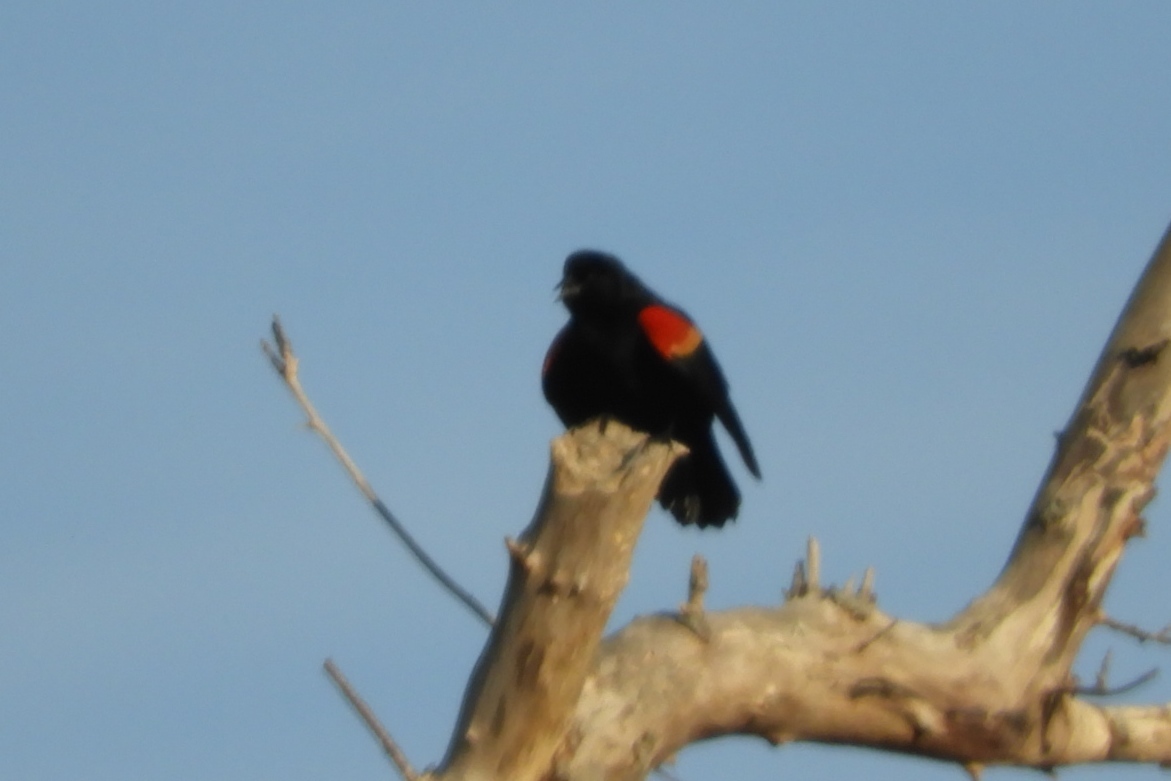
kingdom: Animalia
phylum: Chordata
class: Aves
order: Passeriformes
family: Icteridae
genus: Agelaius
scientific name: Agelaius phoeniceus
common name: Red-winged blackbird
